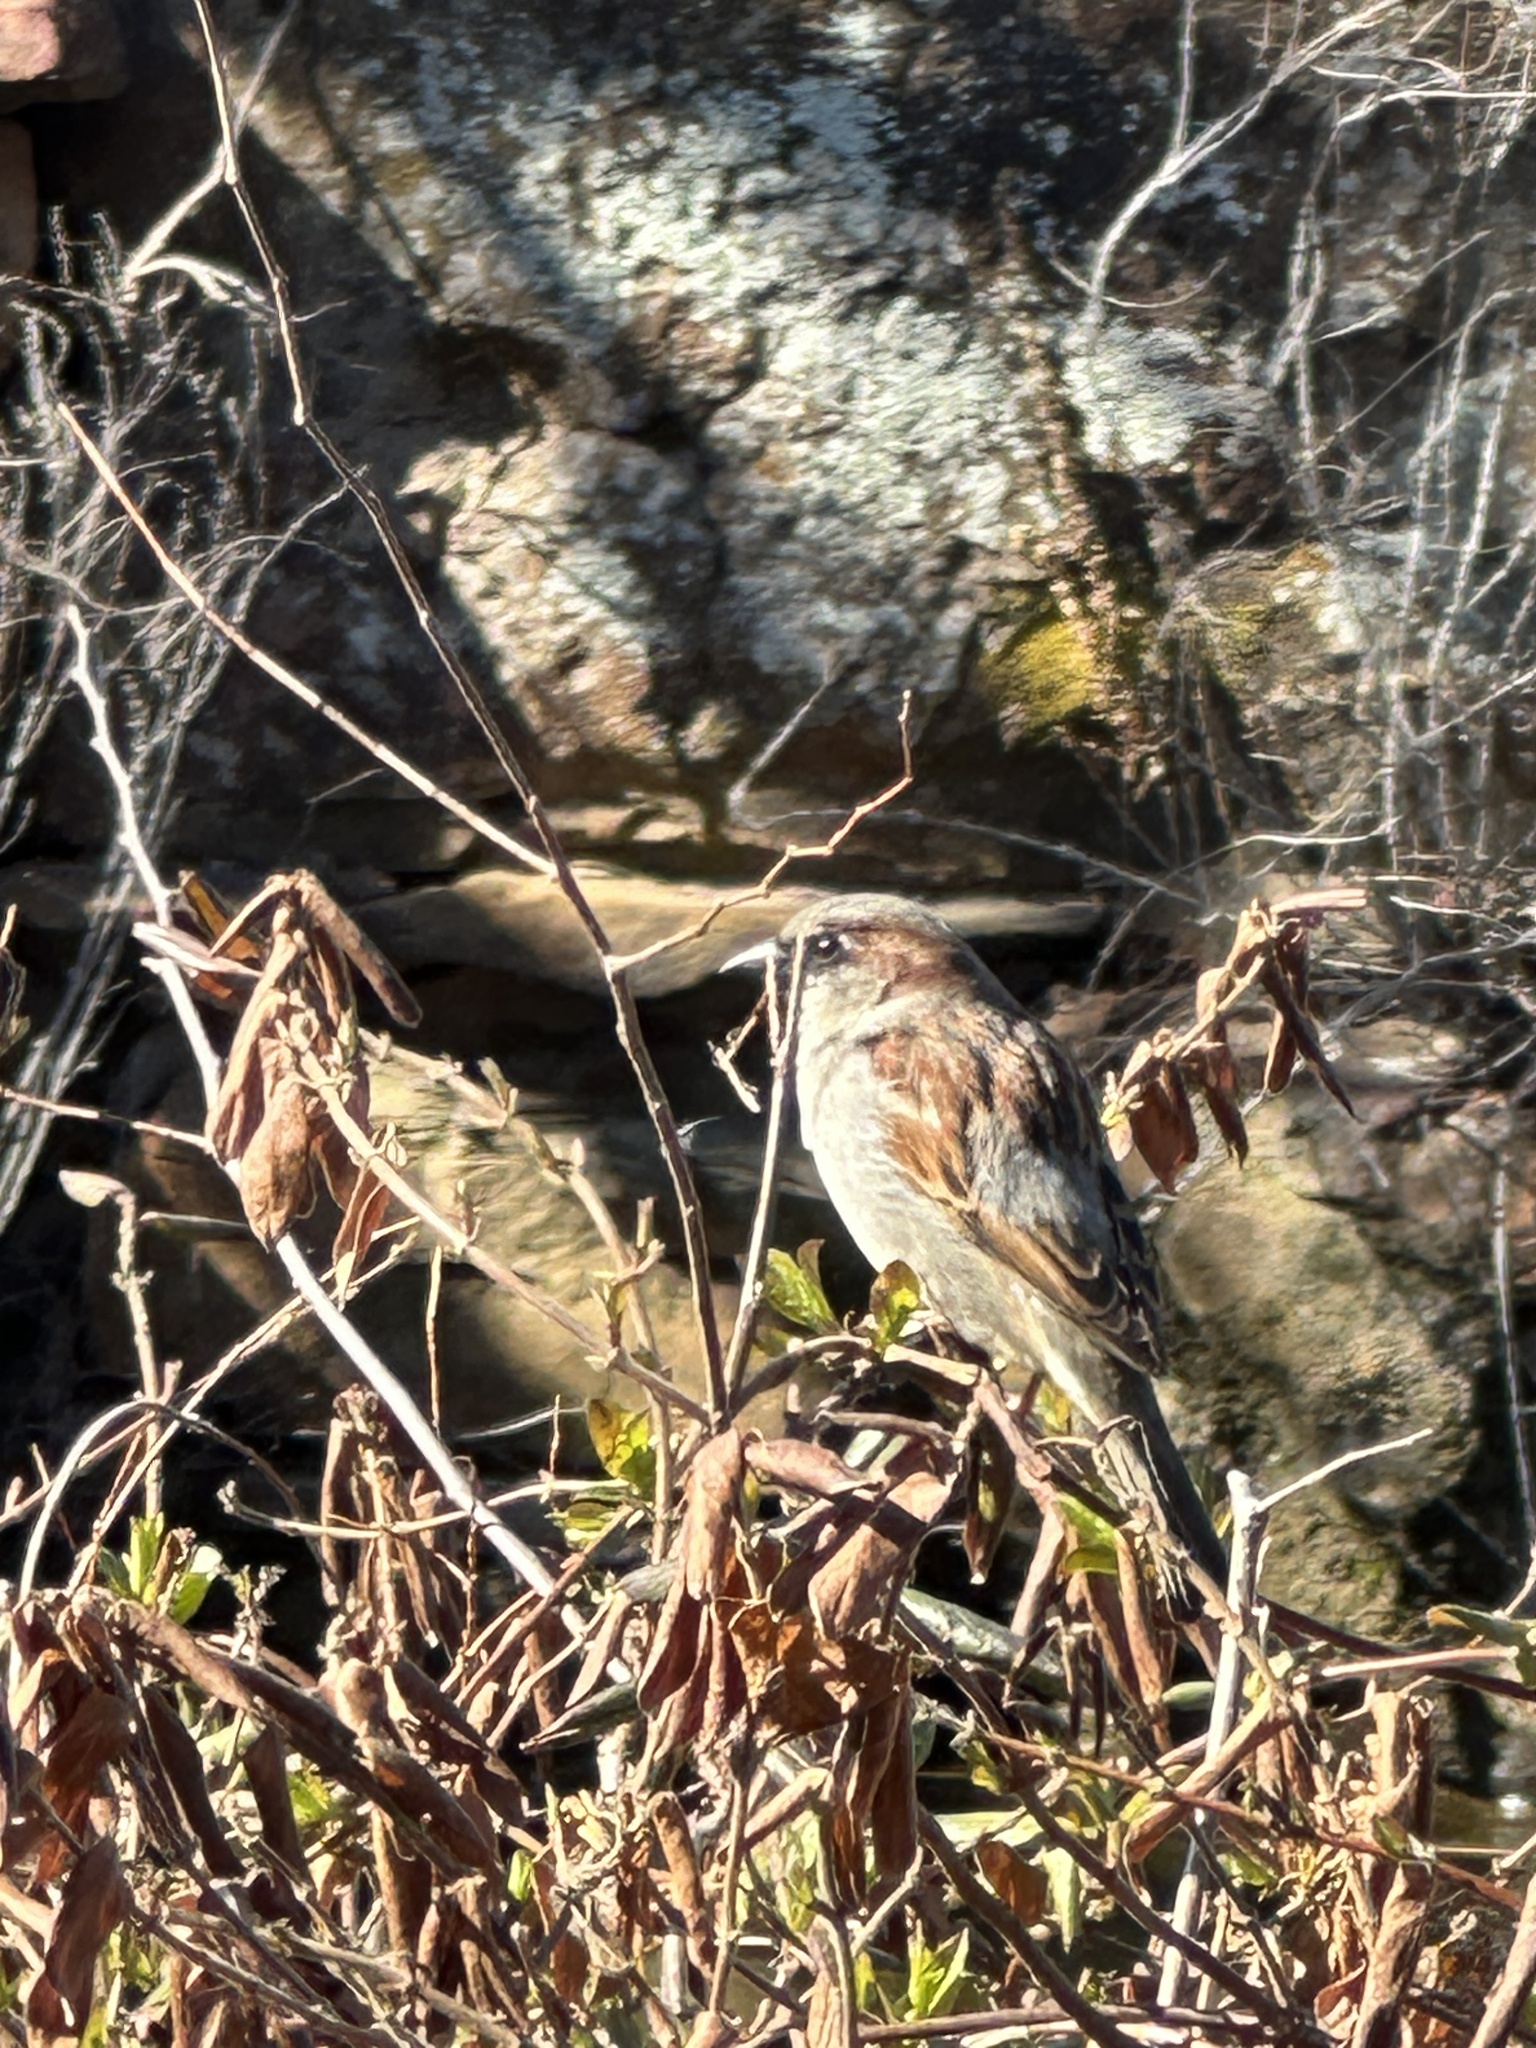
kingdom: Animalia
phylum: Chordata
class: Aves
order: Passeriformes
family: Passeridae
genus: Passer
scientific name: Passer domesticus
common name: House sparrow
